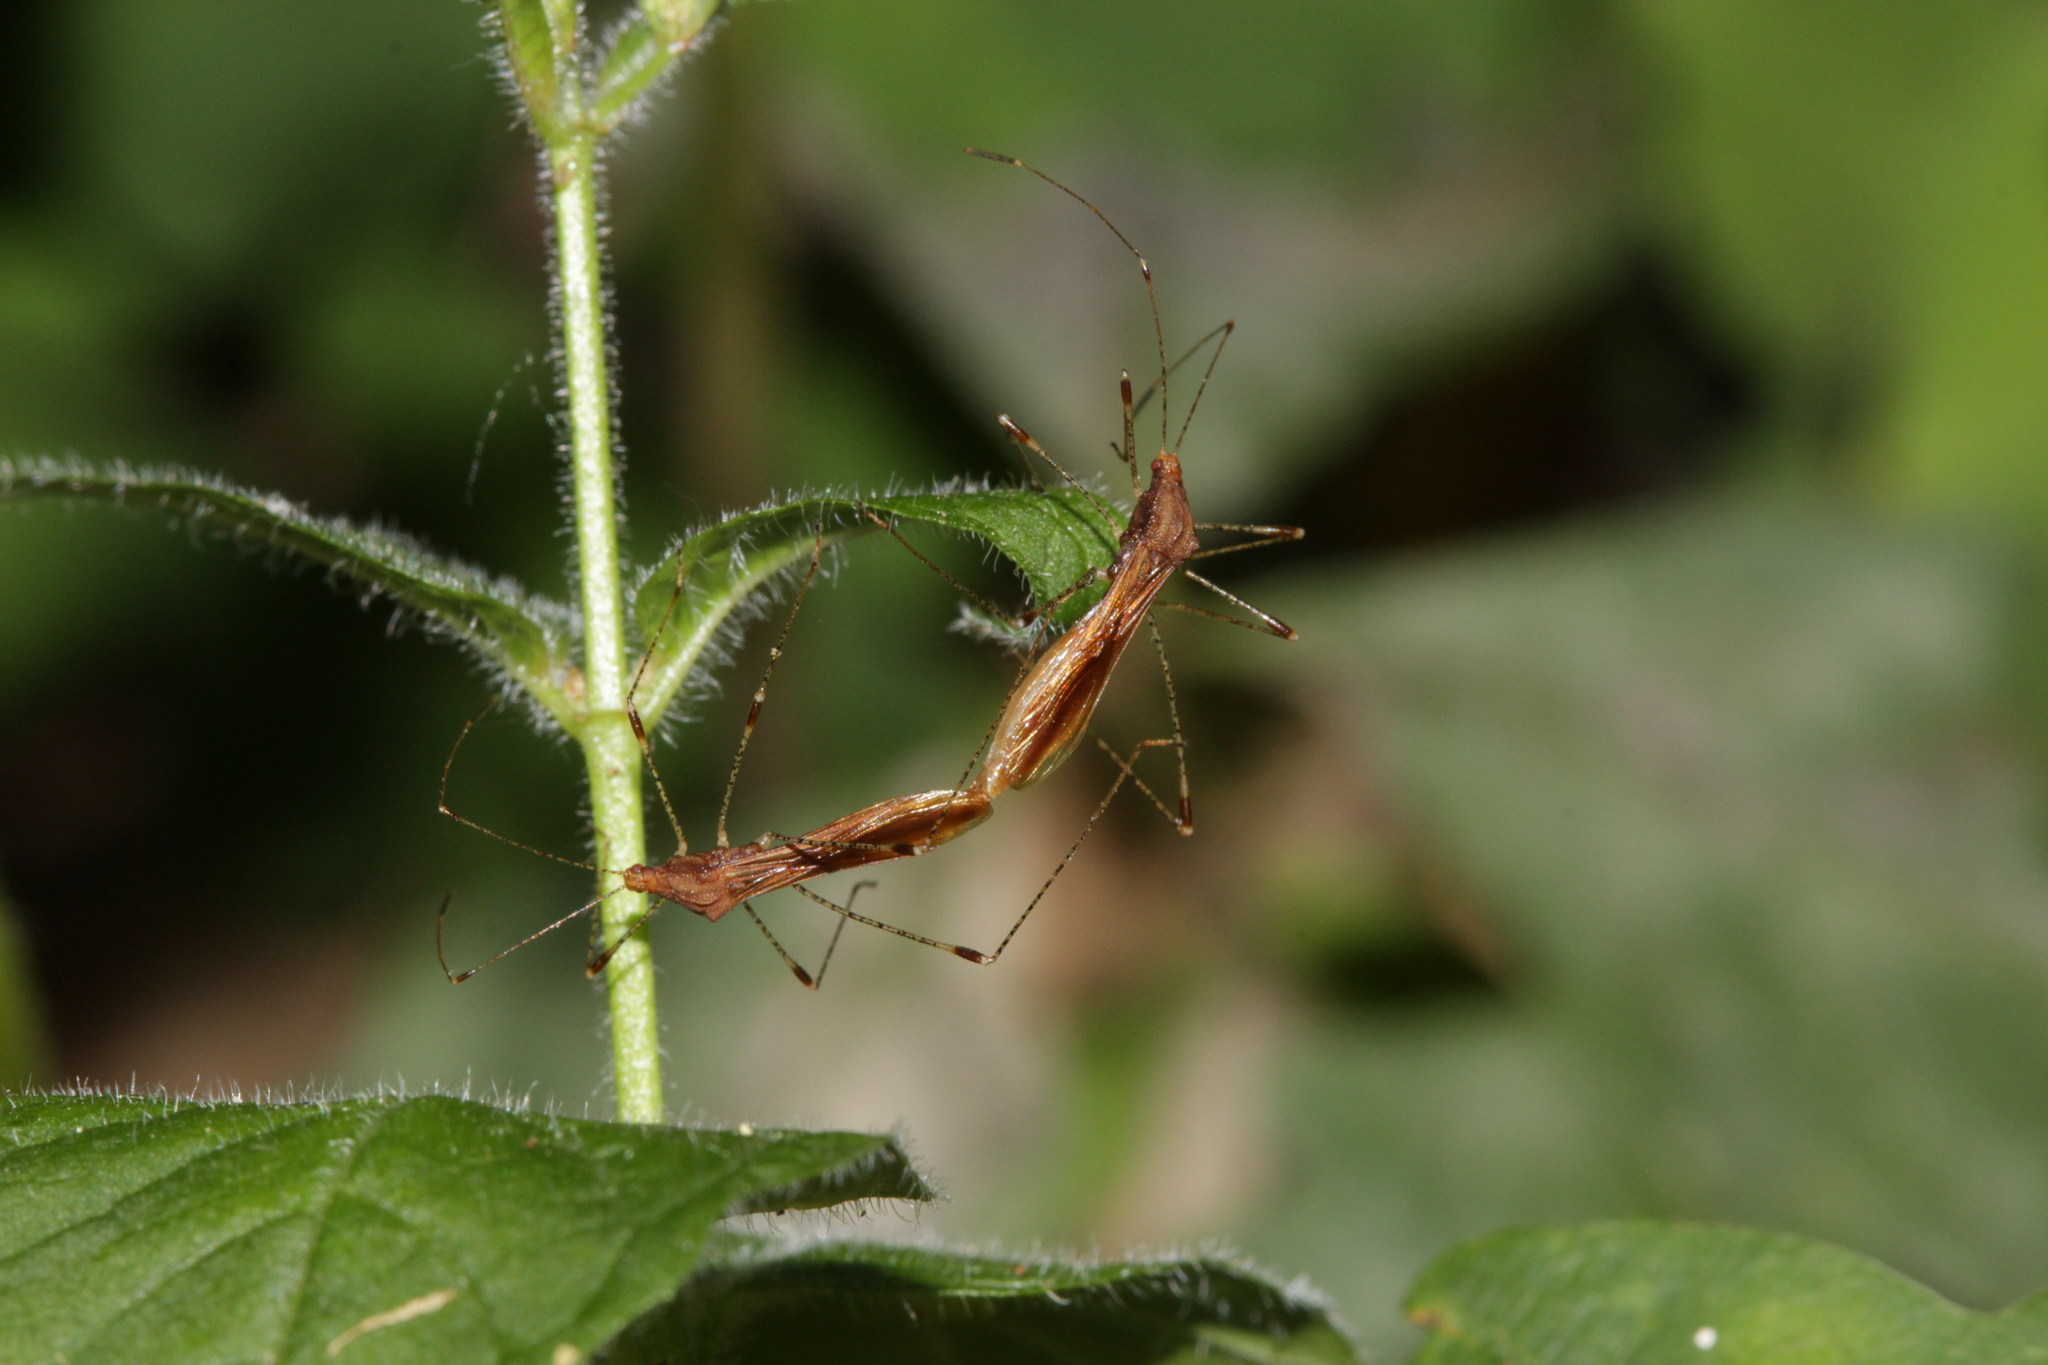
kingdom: Animalia
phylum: Arthropoda
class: Insecta
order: Hemiptera
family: Berytidae
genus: Metatropis
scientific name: Metatropis rufescens
